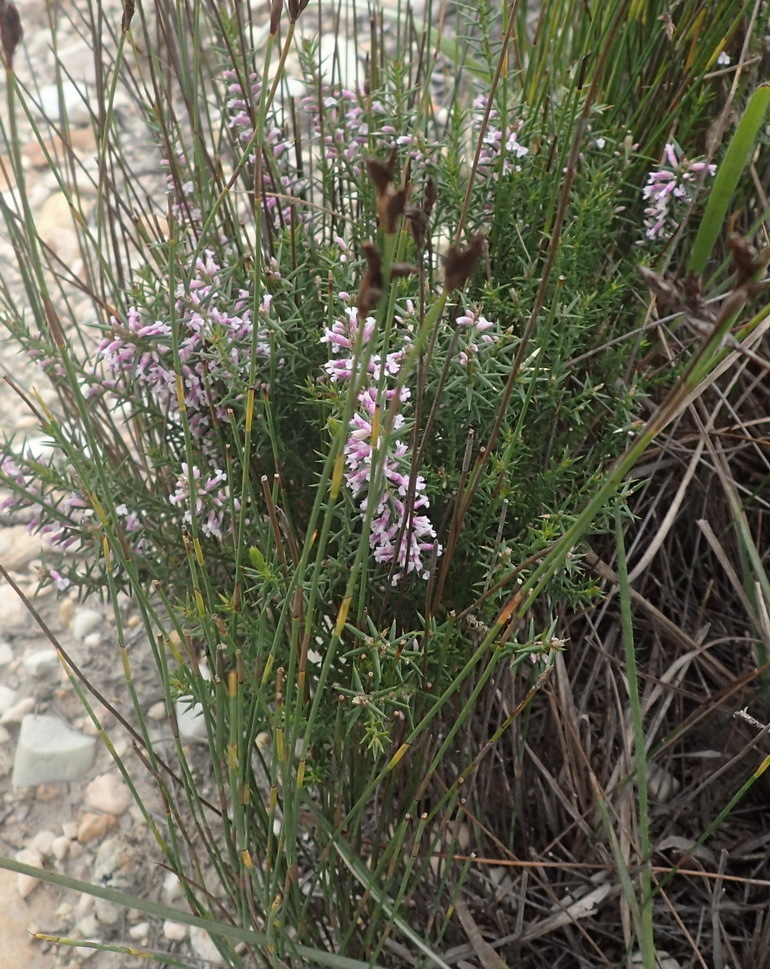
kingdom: Plantae
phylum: Tracheophyta
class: Magnoliopsida
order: Fabales
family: Polygalaceae
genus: Muraltia
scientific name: Muraltia juniperifolia
